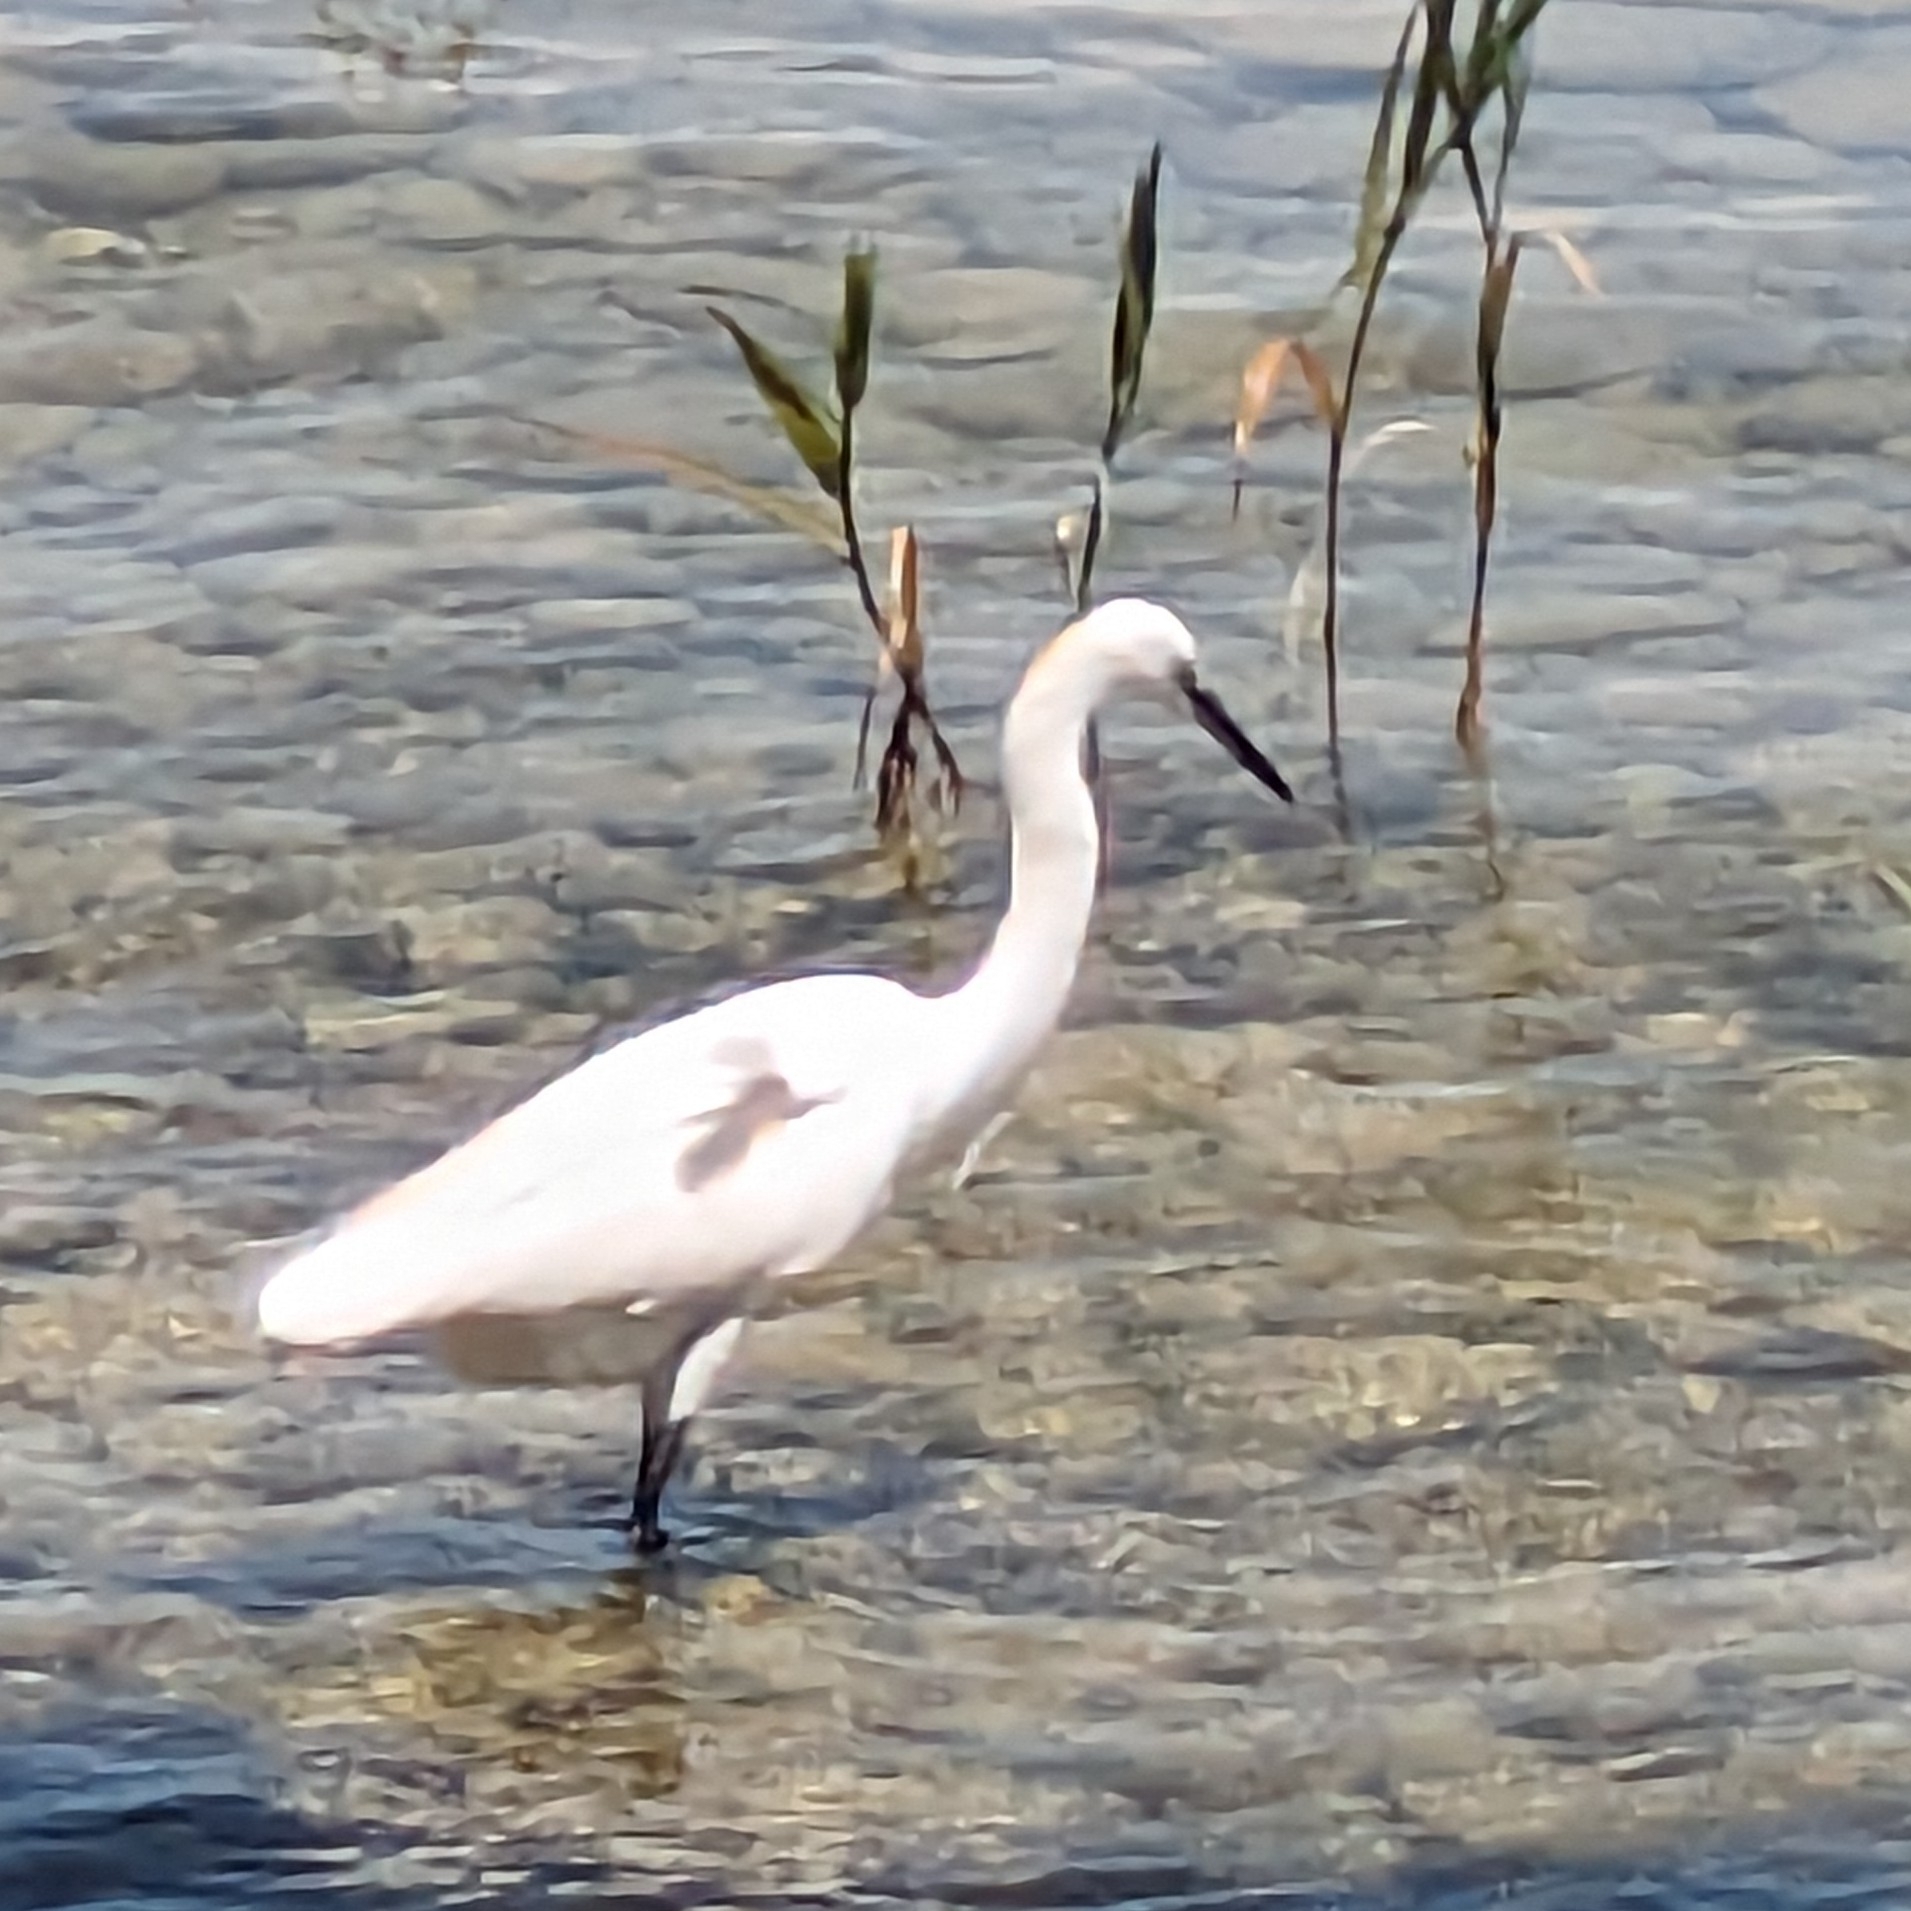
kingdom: Animalia
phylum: Chordata
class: Aves
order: Pelecaniformes
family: Ardeidae
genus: Egretta
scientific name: Egretta garzetta
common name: Little egret
